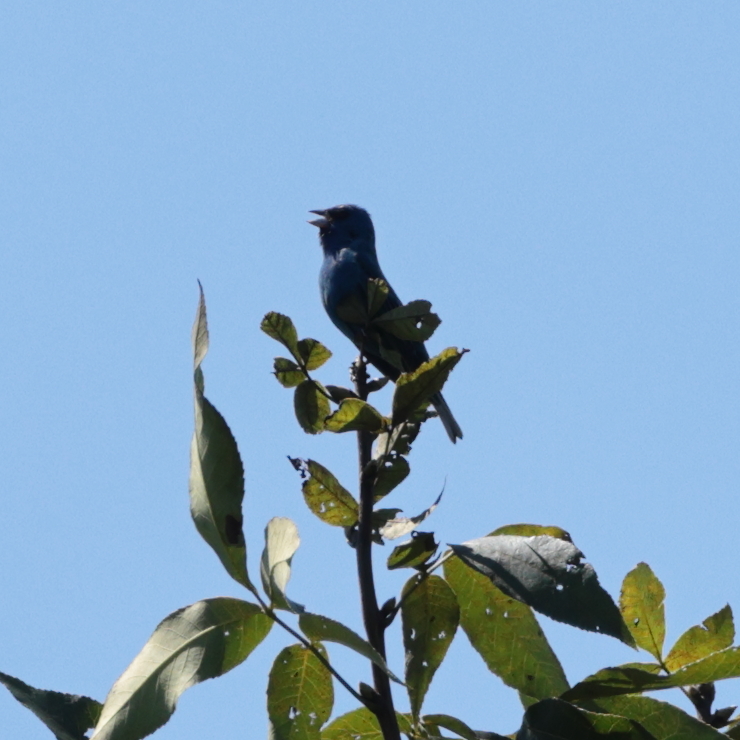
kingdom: Animalia
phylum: Chordata
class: Aves
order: Passeriformes
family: Cardinalidae
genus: Passerina
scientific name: Passerina cyanea
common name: Indigo bunting
